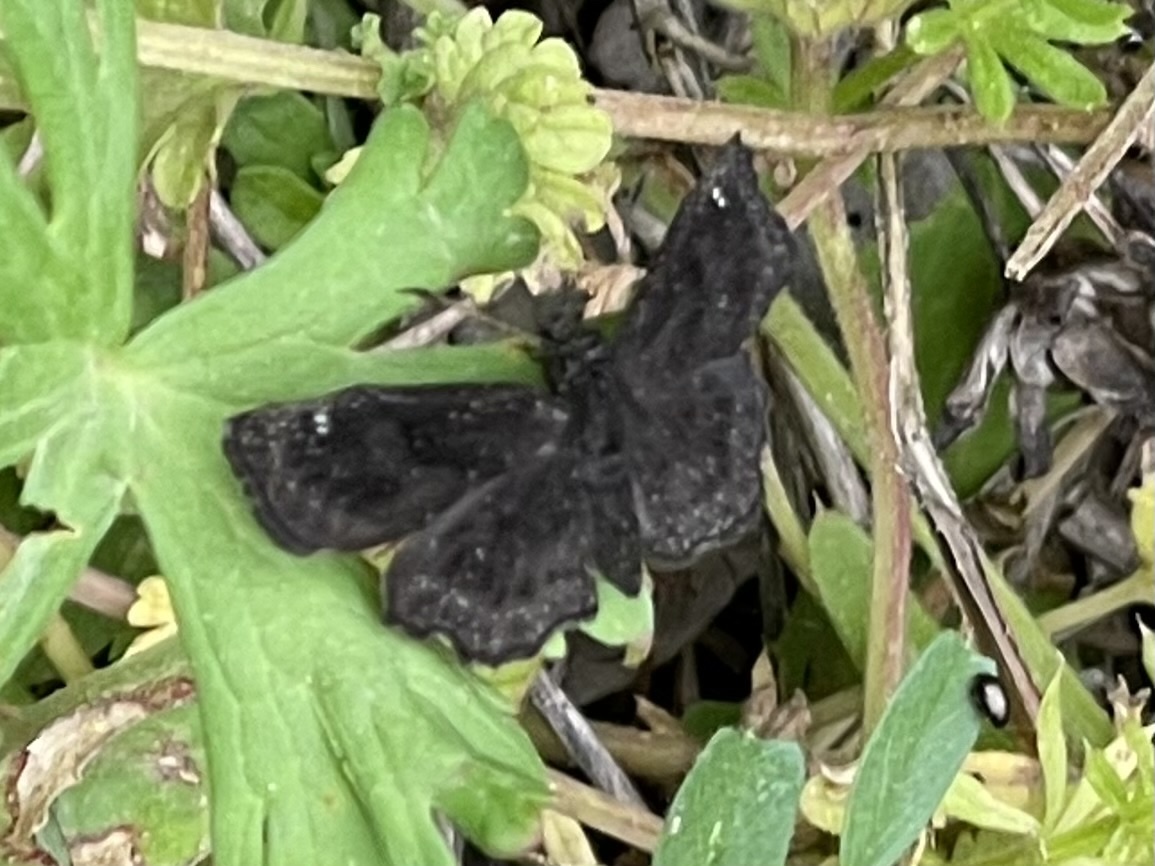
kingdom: Animalia
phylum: Arthropoda
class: Insecta
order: Lepidoptera
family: Hesperiidae
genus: Staphylus
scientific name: Staphylus mazans
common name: Mazans scallopwing
